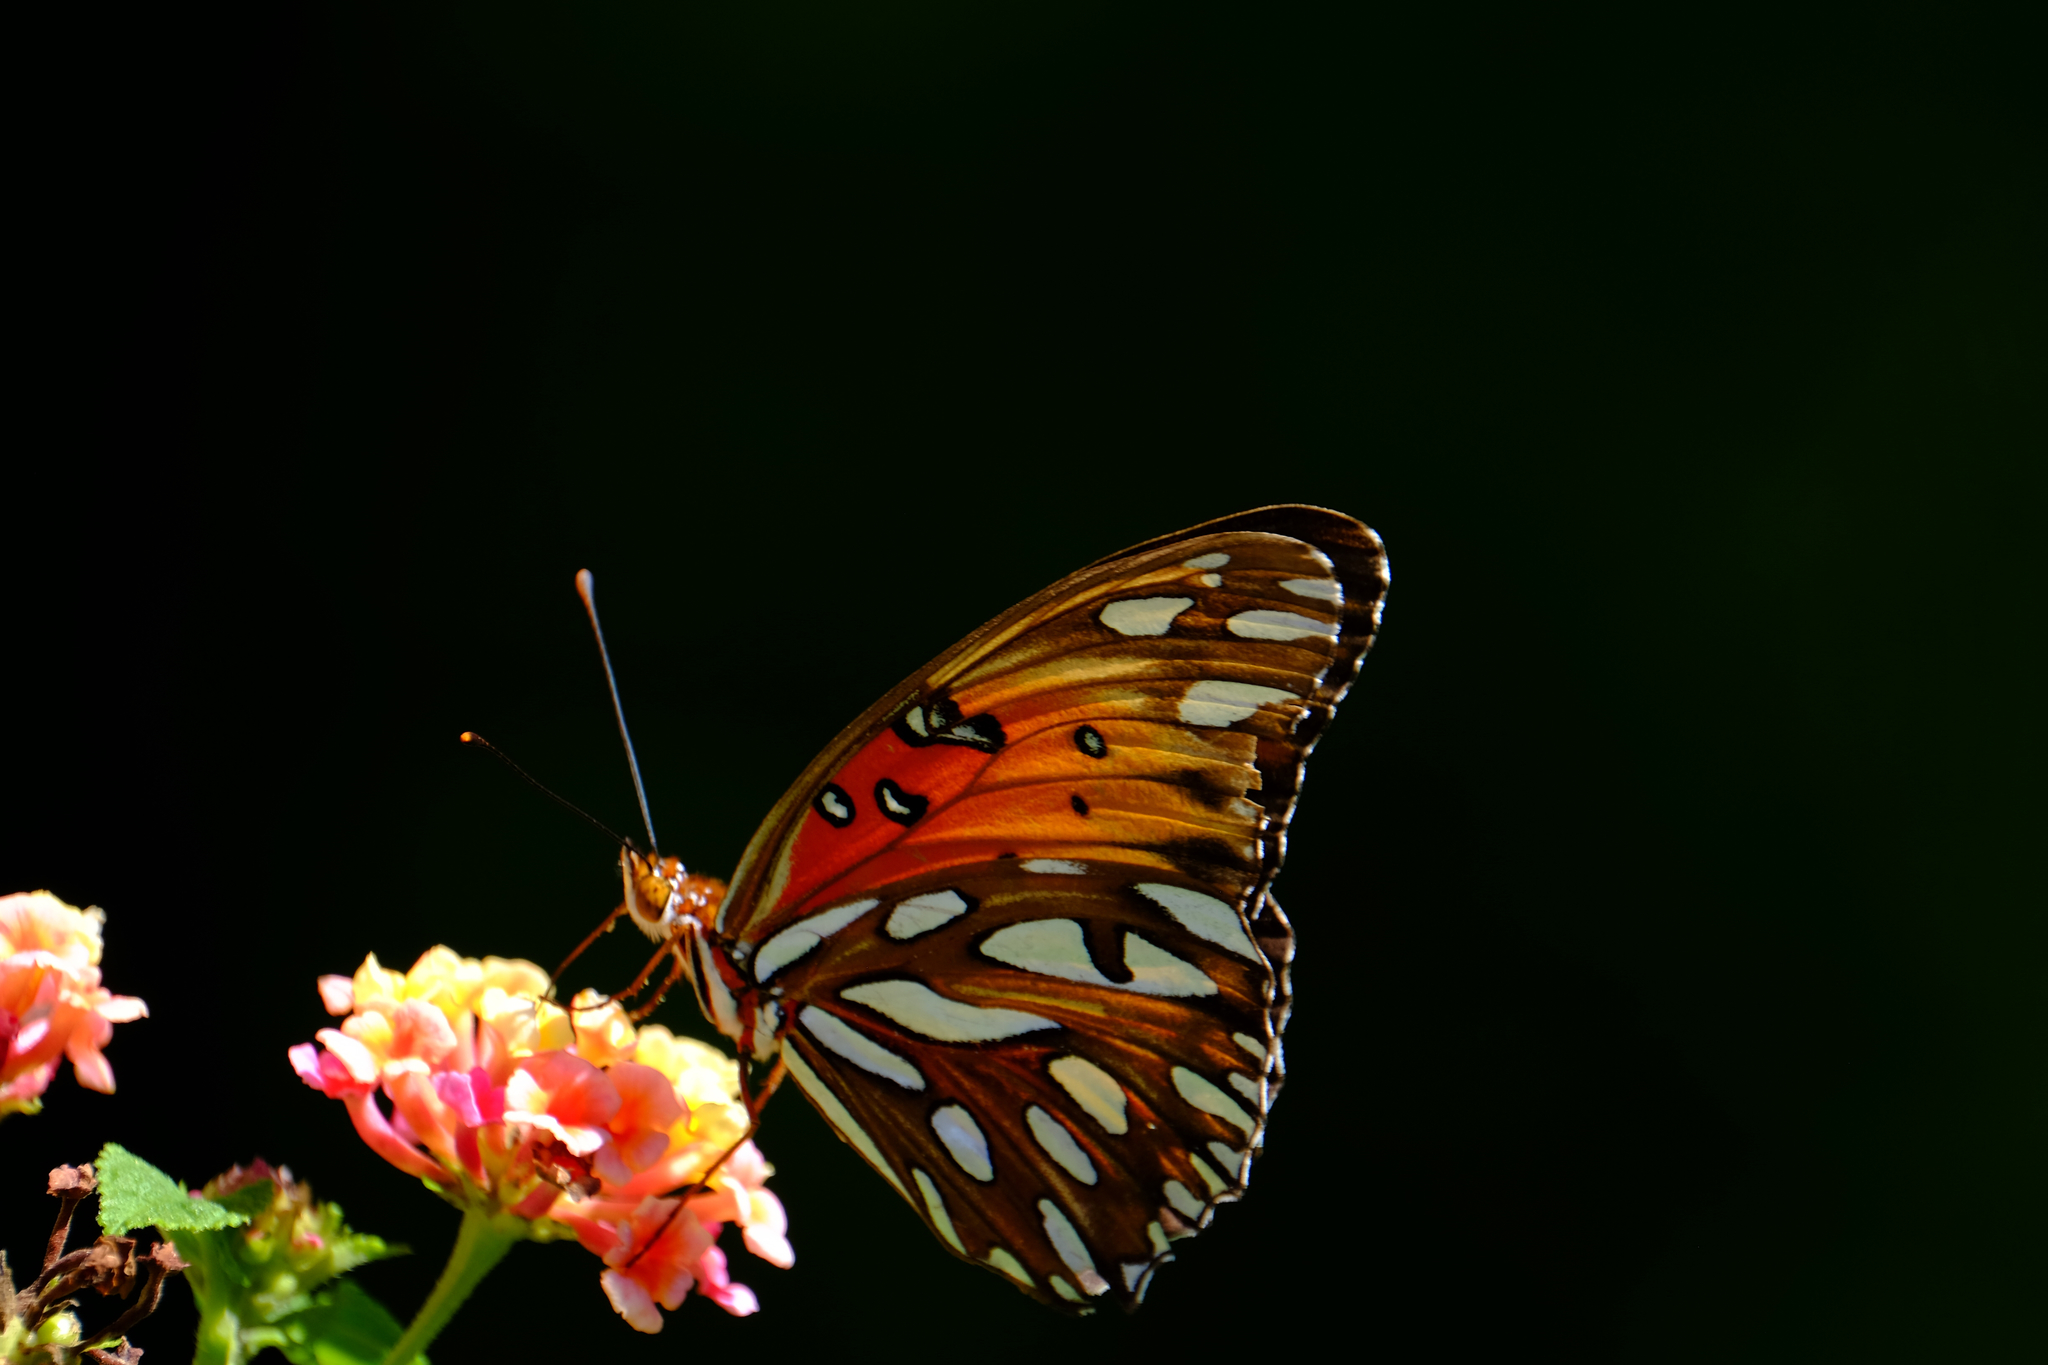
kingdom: Animalia
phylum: Arthropoda
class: Insecta
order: Lepidoptera
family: Nymphalidae
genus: Dione
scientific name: Dione vanillae
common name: Gulf fritillary
